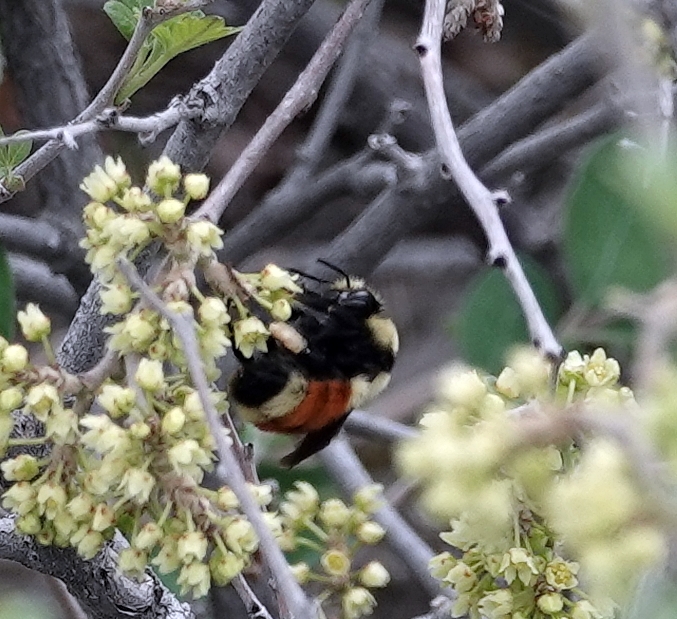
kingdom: Animalia
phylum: Arthropoda
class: Insecta
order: Hymenoptera
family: Apidae
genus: Bombus
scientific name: Bombus huntii
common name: Hunt bumble bee
